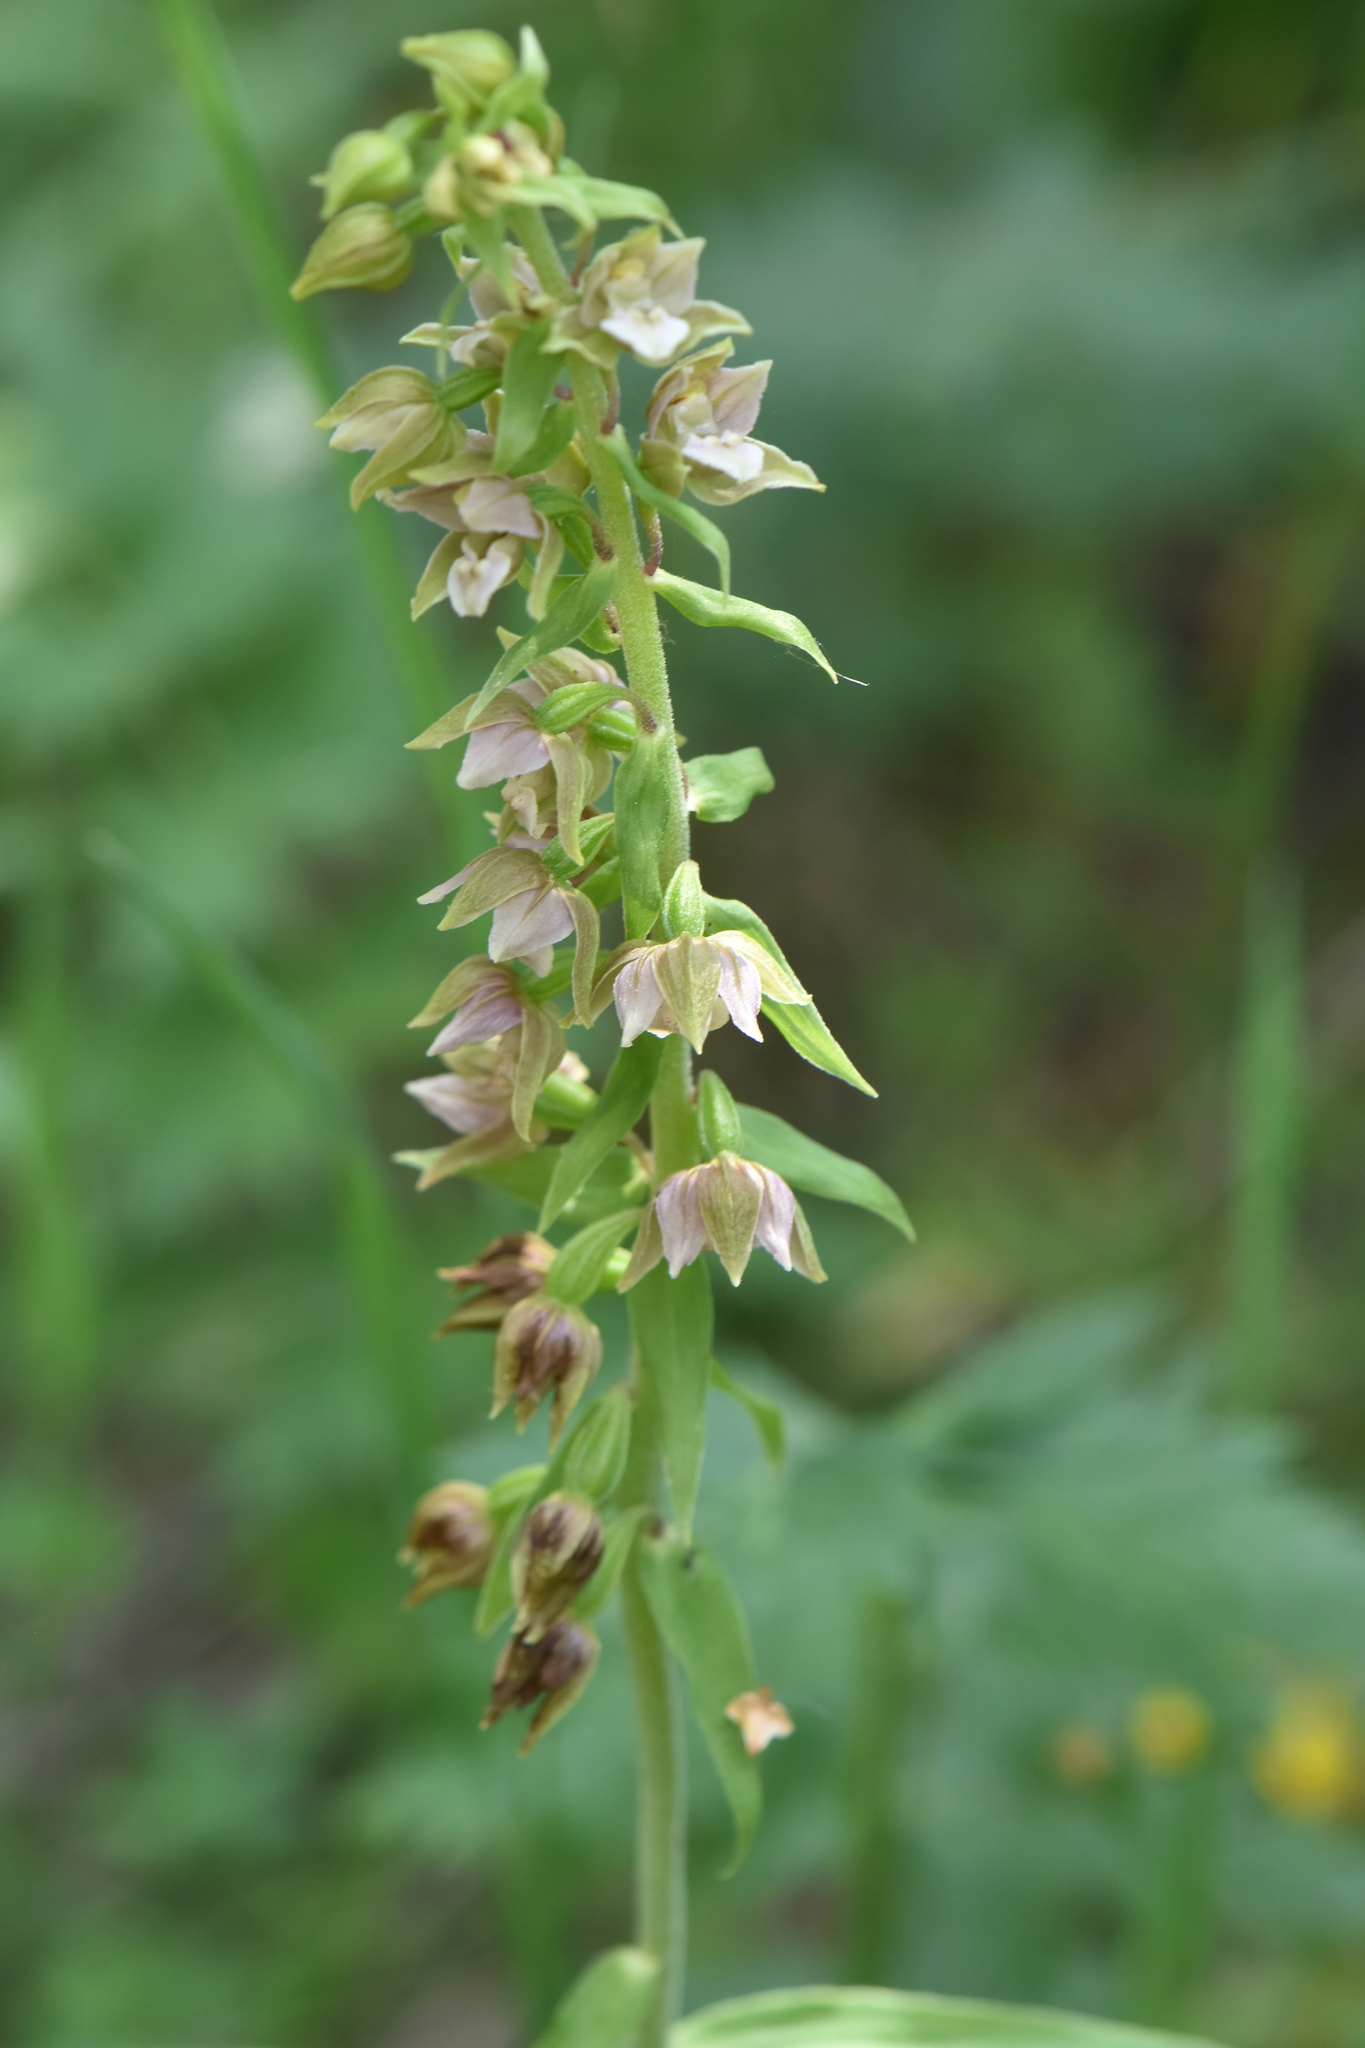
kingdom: Plantae
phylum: Tracheophyta
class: Liliopsida
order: Asparagales
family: Orchidaceae
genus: Epipactis
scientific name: Epipactis helleborine
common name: Broad-leaved helleborine
